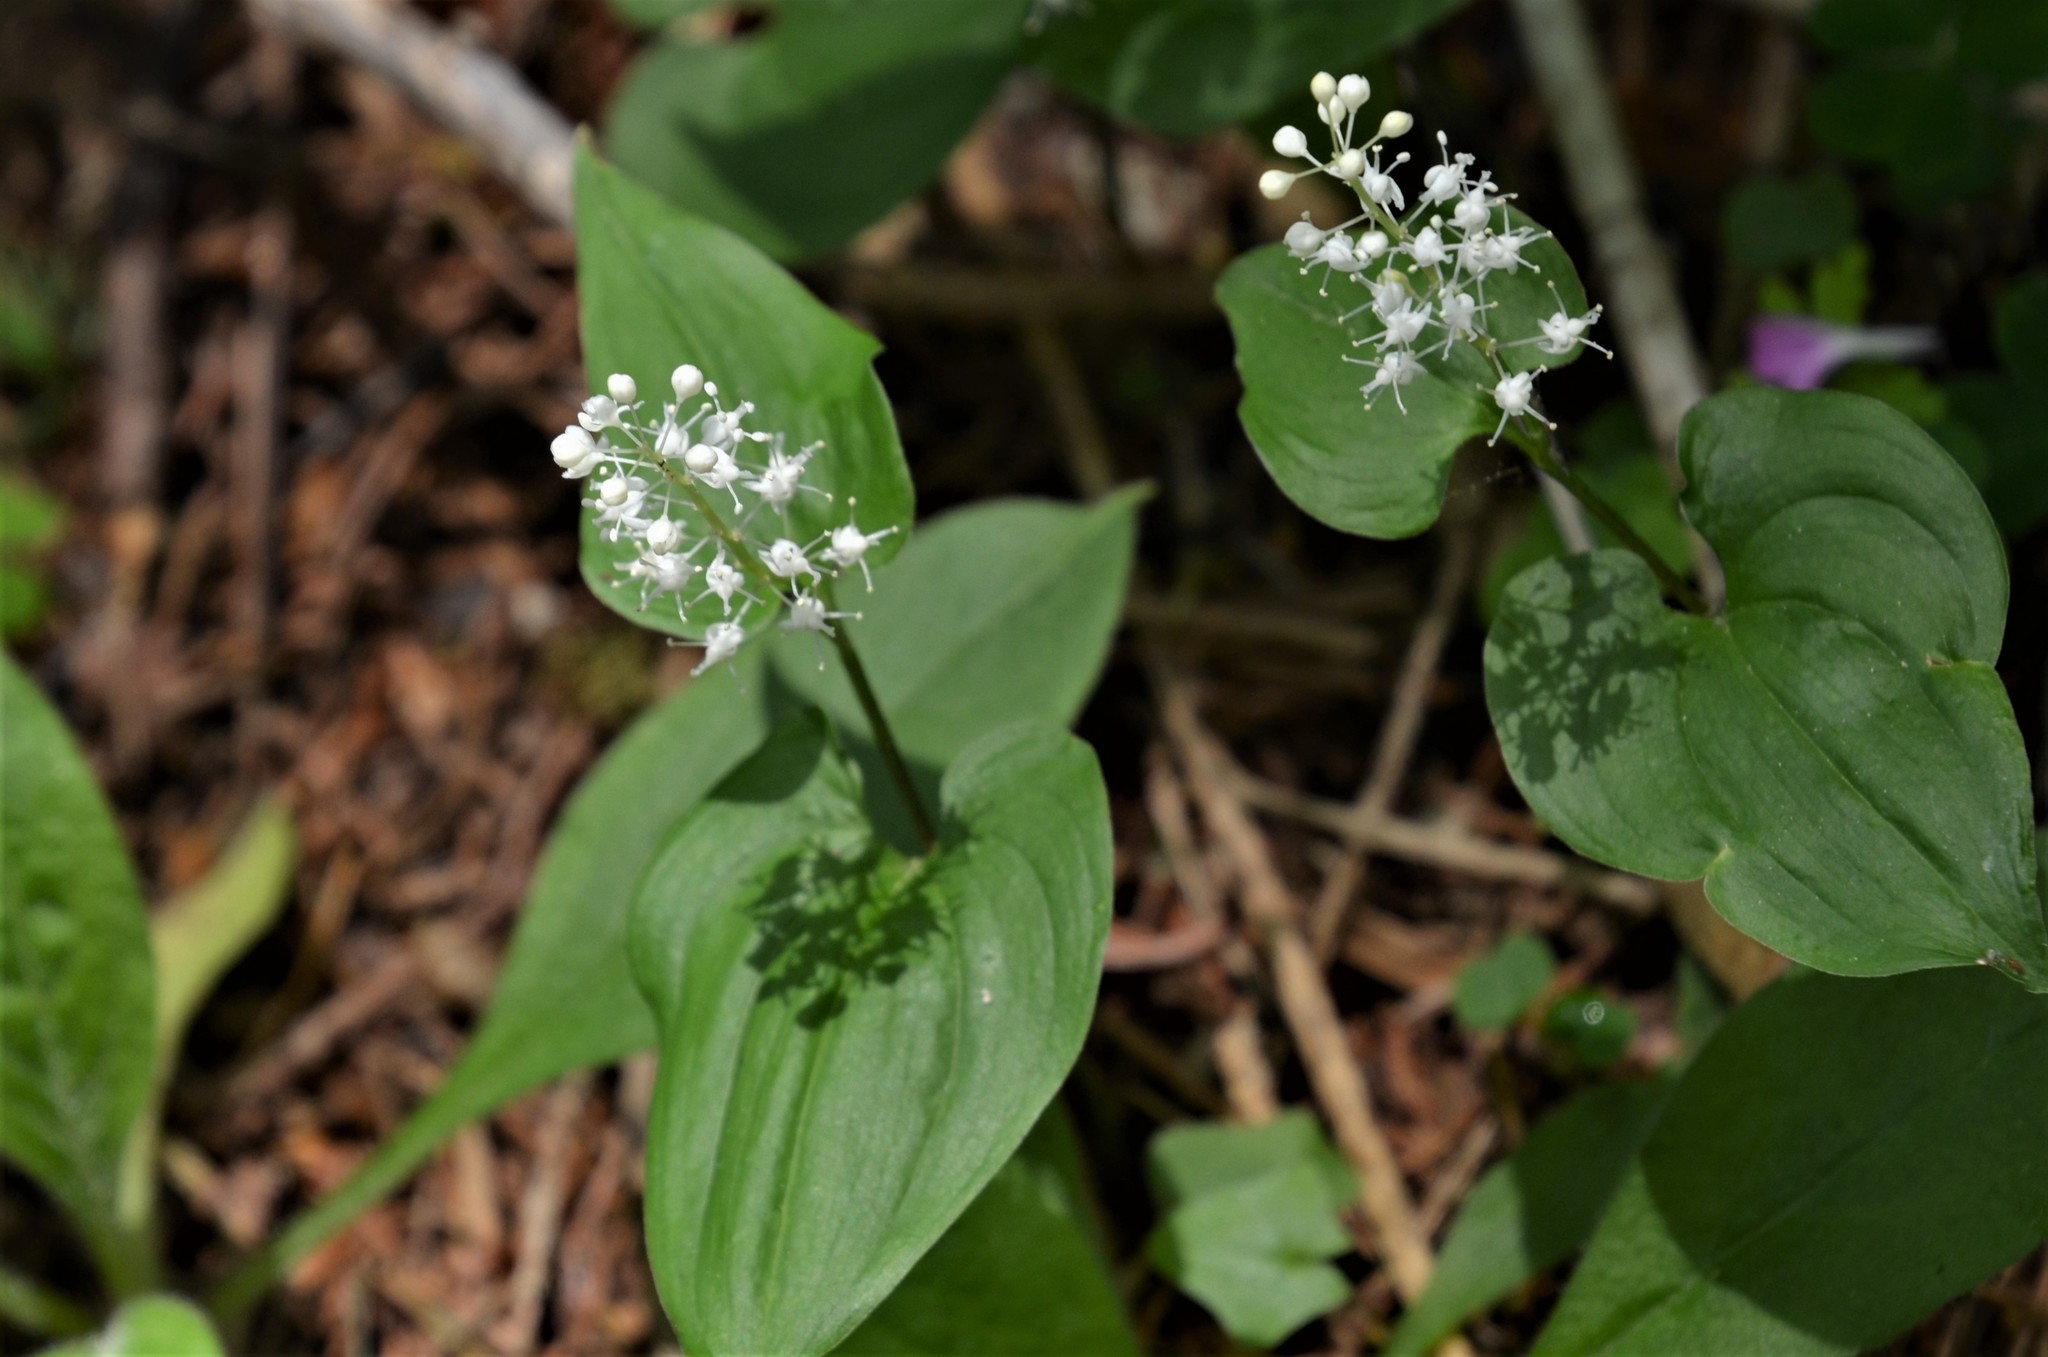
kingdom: Plantae
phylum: Tracheophyta
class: Liliopsida
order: Asparagales
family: Asparagaceae
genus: Maianthemum
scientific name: Maianthemum bifolium
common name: May lily
